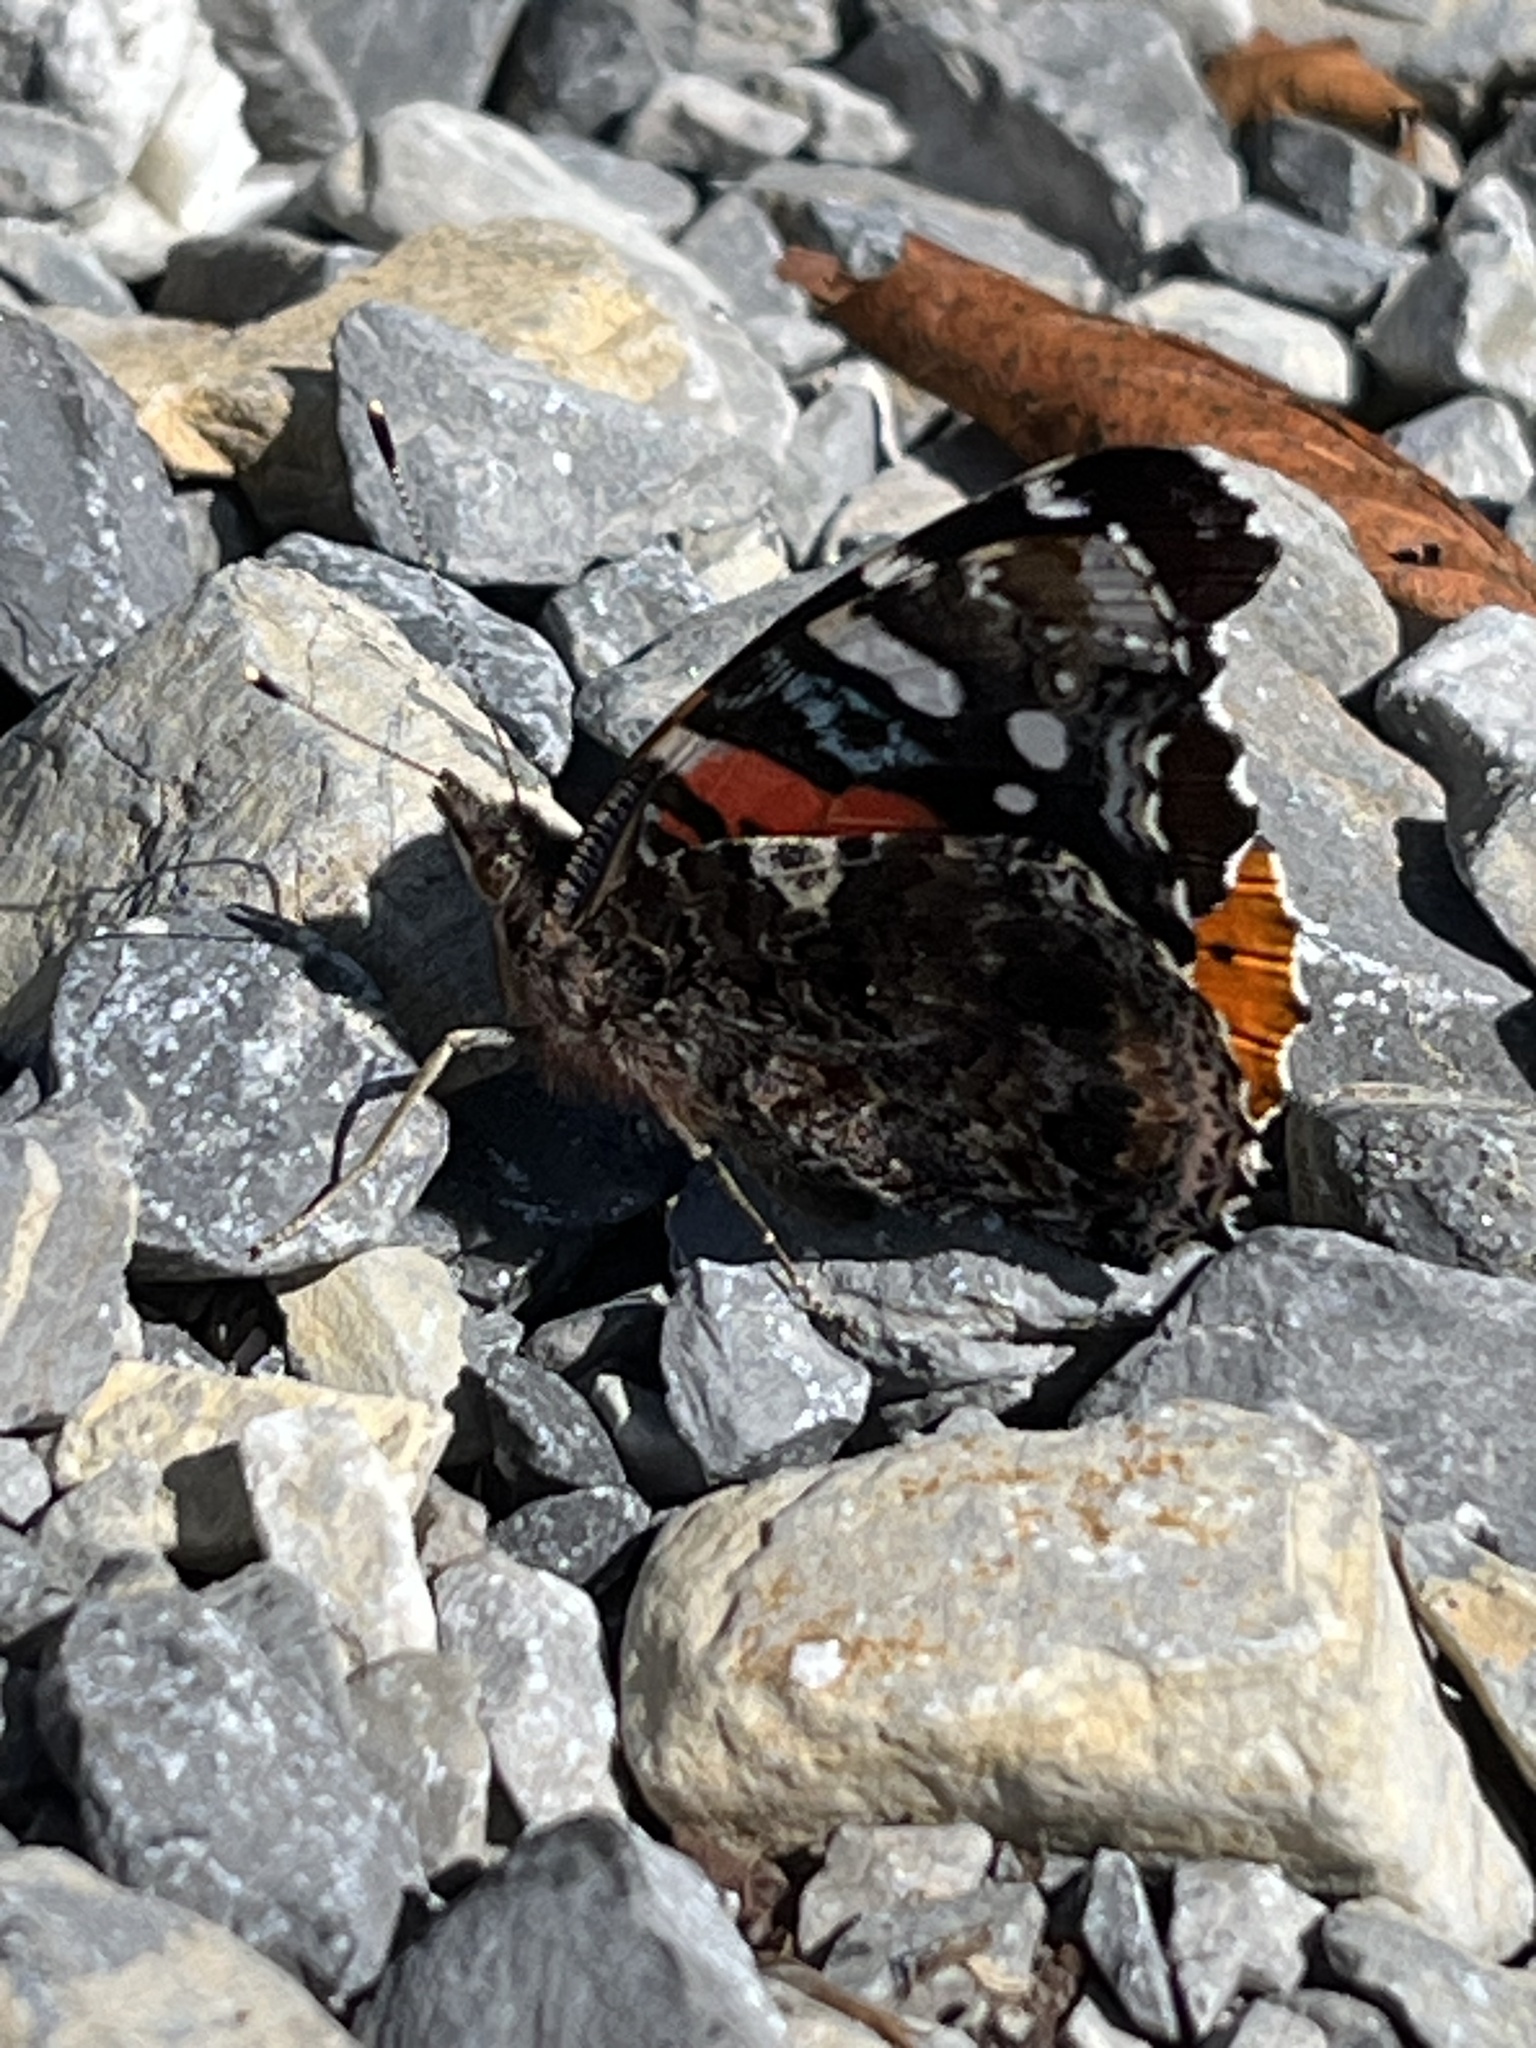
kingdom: Animalia
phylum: Arthropoda
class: Insecta
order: Lepidoptera
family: Nymphalidae
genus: Vanessa
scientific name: Vanessa atalanta
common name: Red admiral
